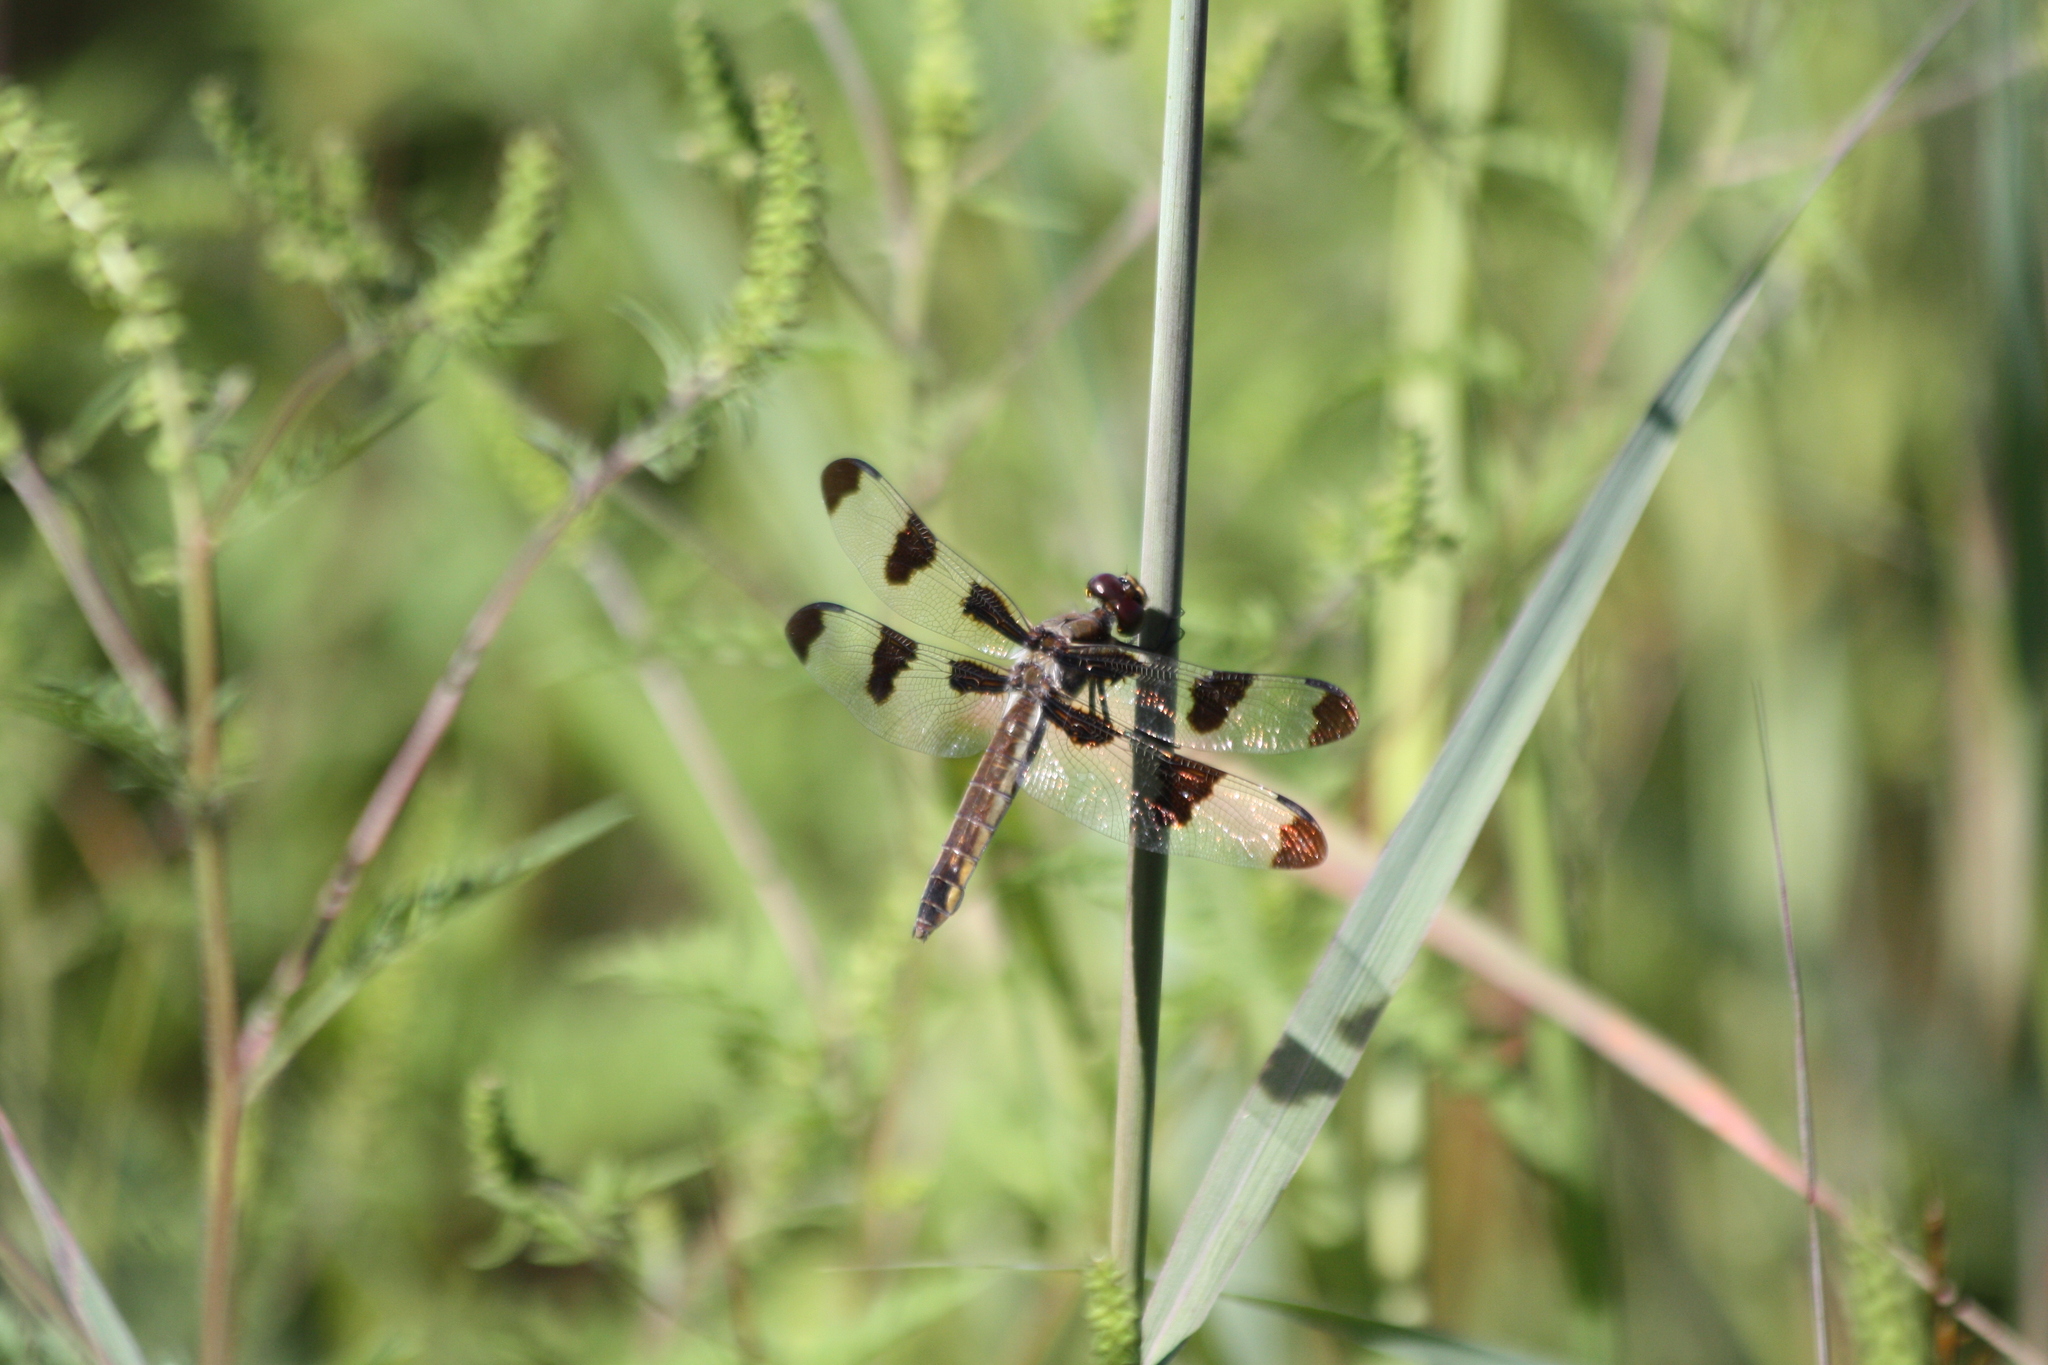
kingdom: Animalia
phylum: Arthropoda
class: Insecta
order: Odonata
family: Libellulidae
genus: Libellula
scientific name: Libellula pulchella
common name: Twelve-spotted skimmer
